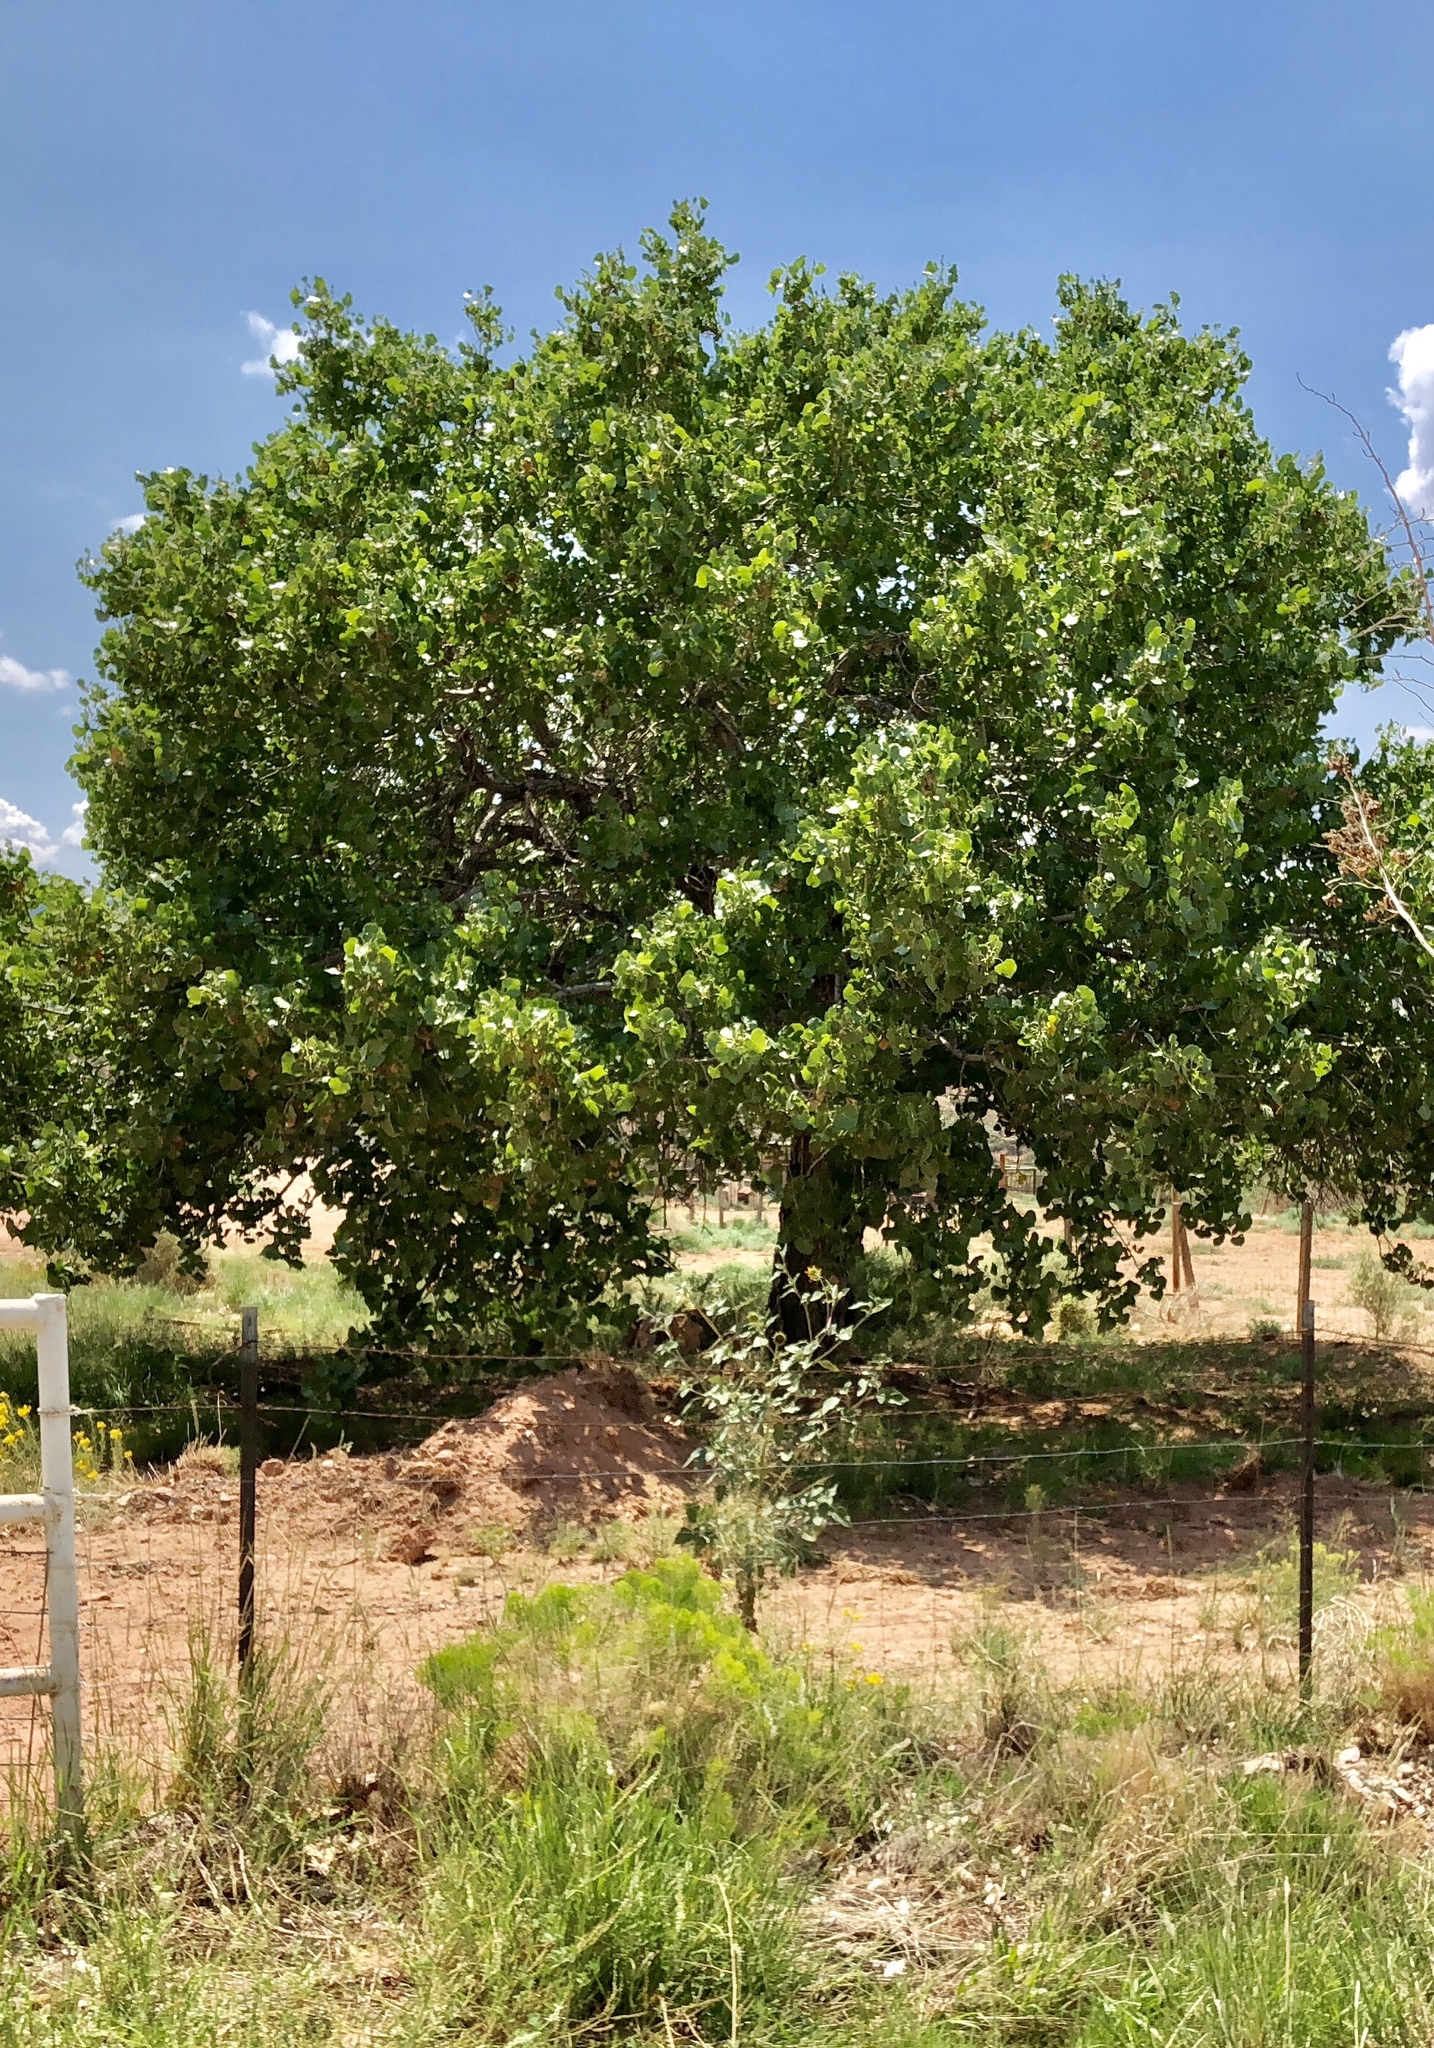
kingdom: Plantae
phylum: Tracheophyta
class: Magnoliopsida
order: Malpighiales
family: Salicaceae
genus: Populus
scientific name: Populus fremontii
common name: Fremont's cottonwood
